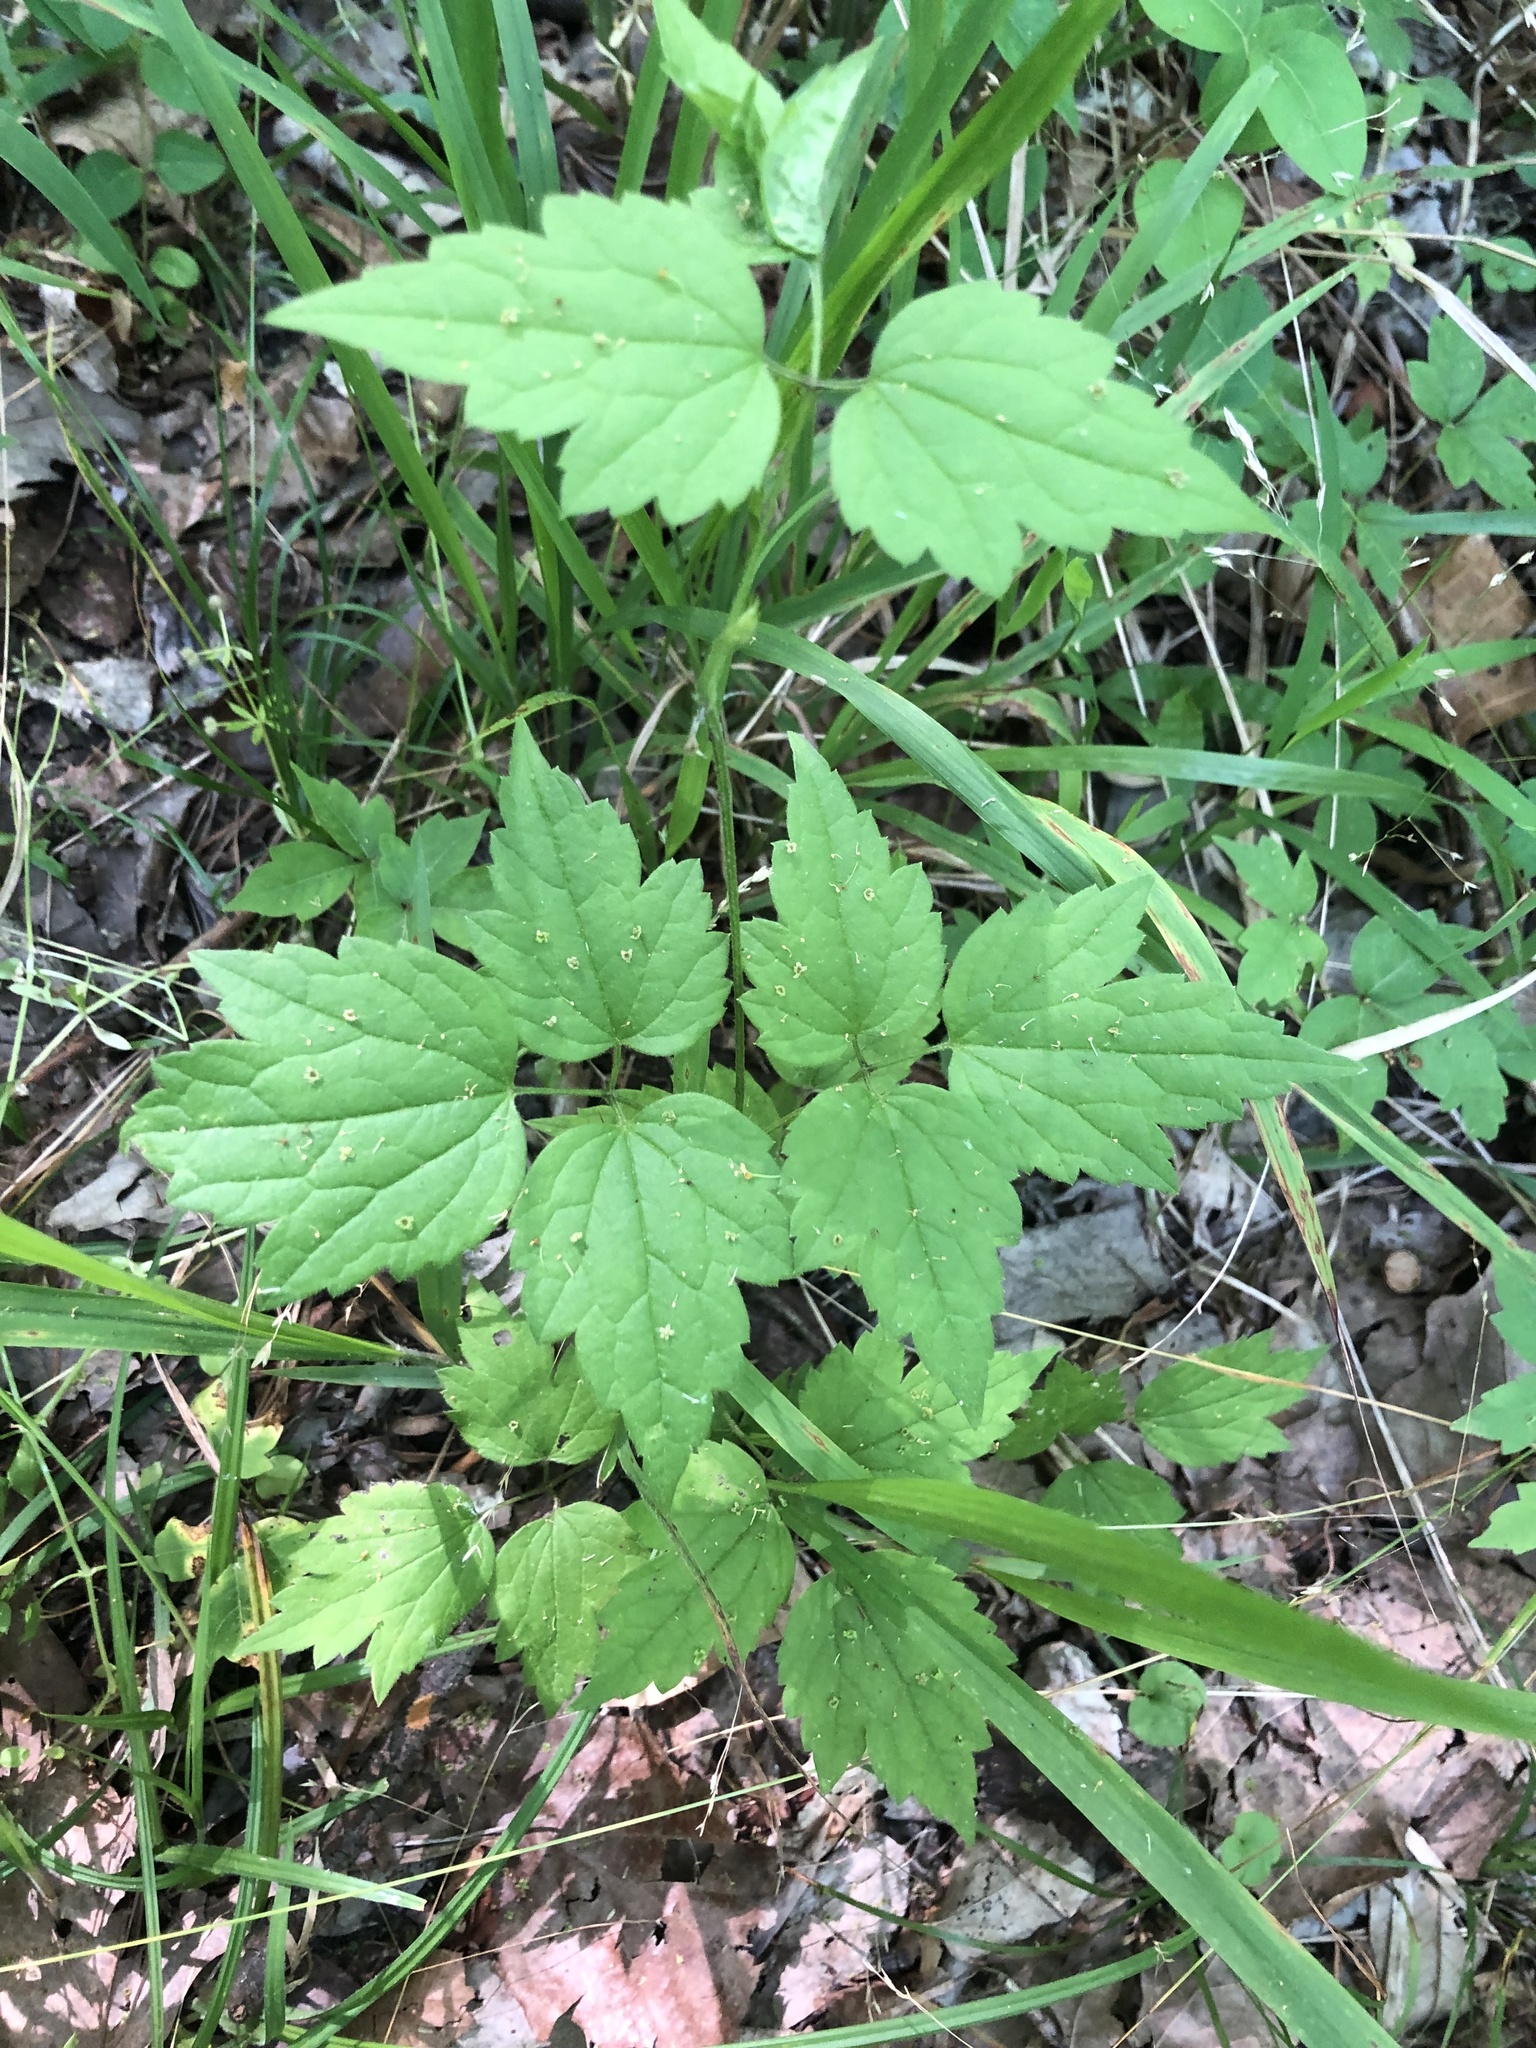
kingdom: Plantae
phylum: Tracheophyta
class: Magnoliopsida
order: Ranunculales
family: Ranunculaceae
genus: Clematis
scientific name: Clematis catesbyana
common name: Virgin's bower
